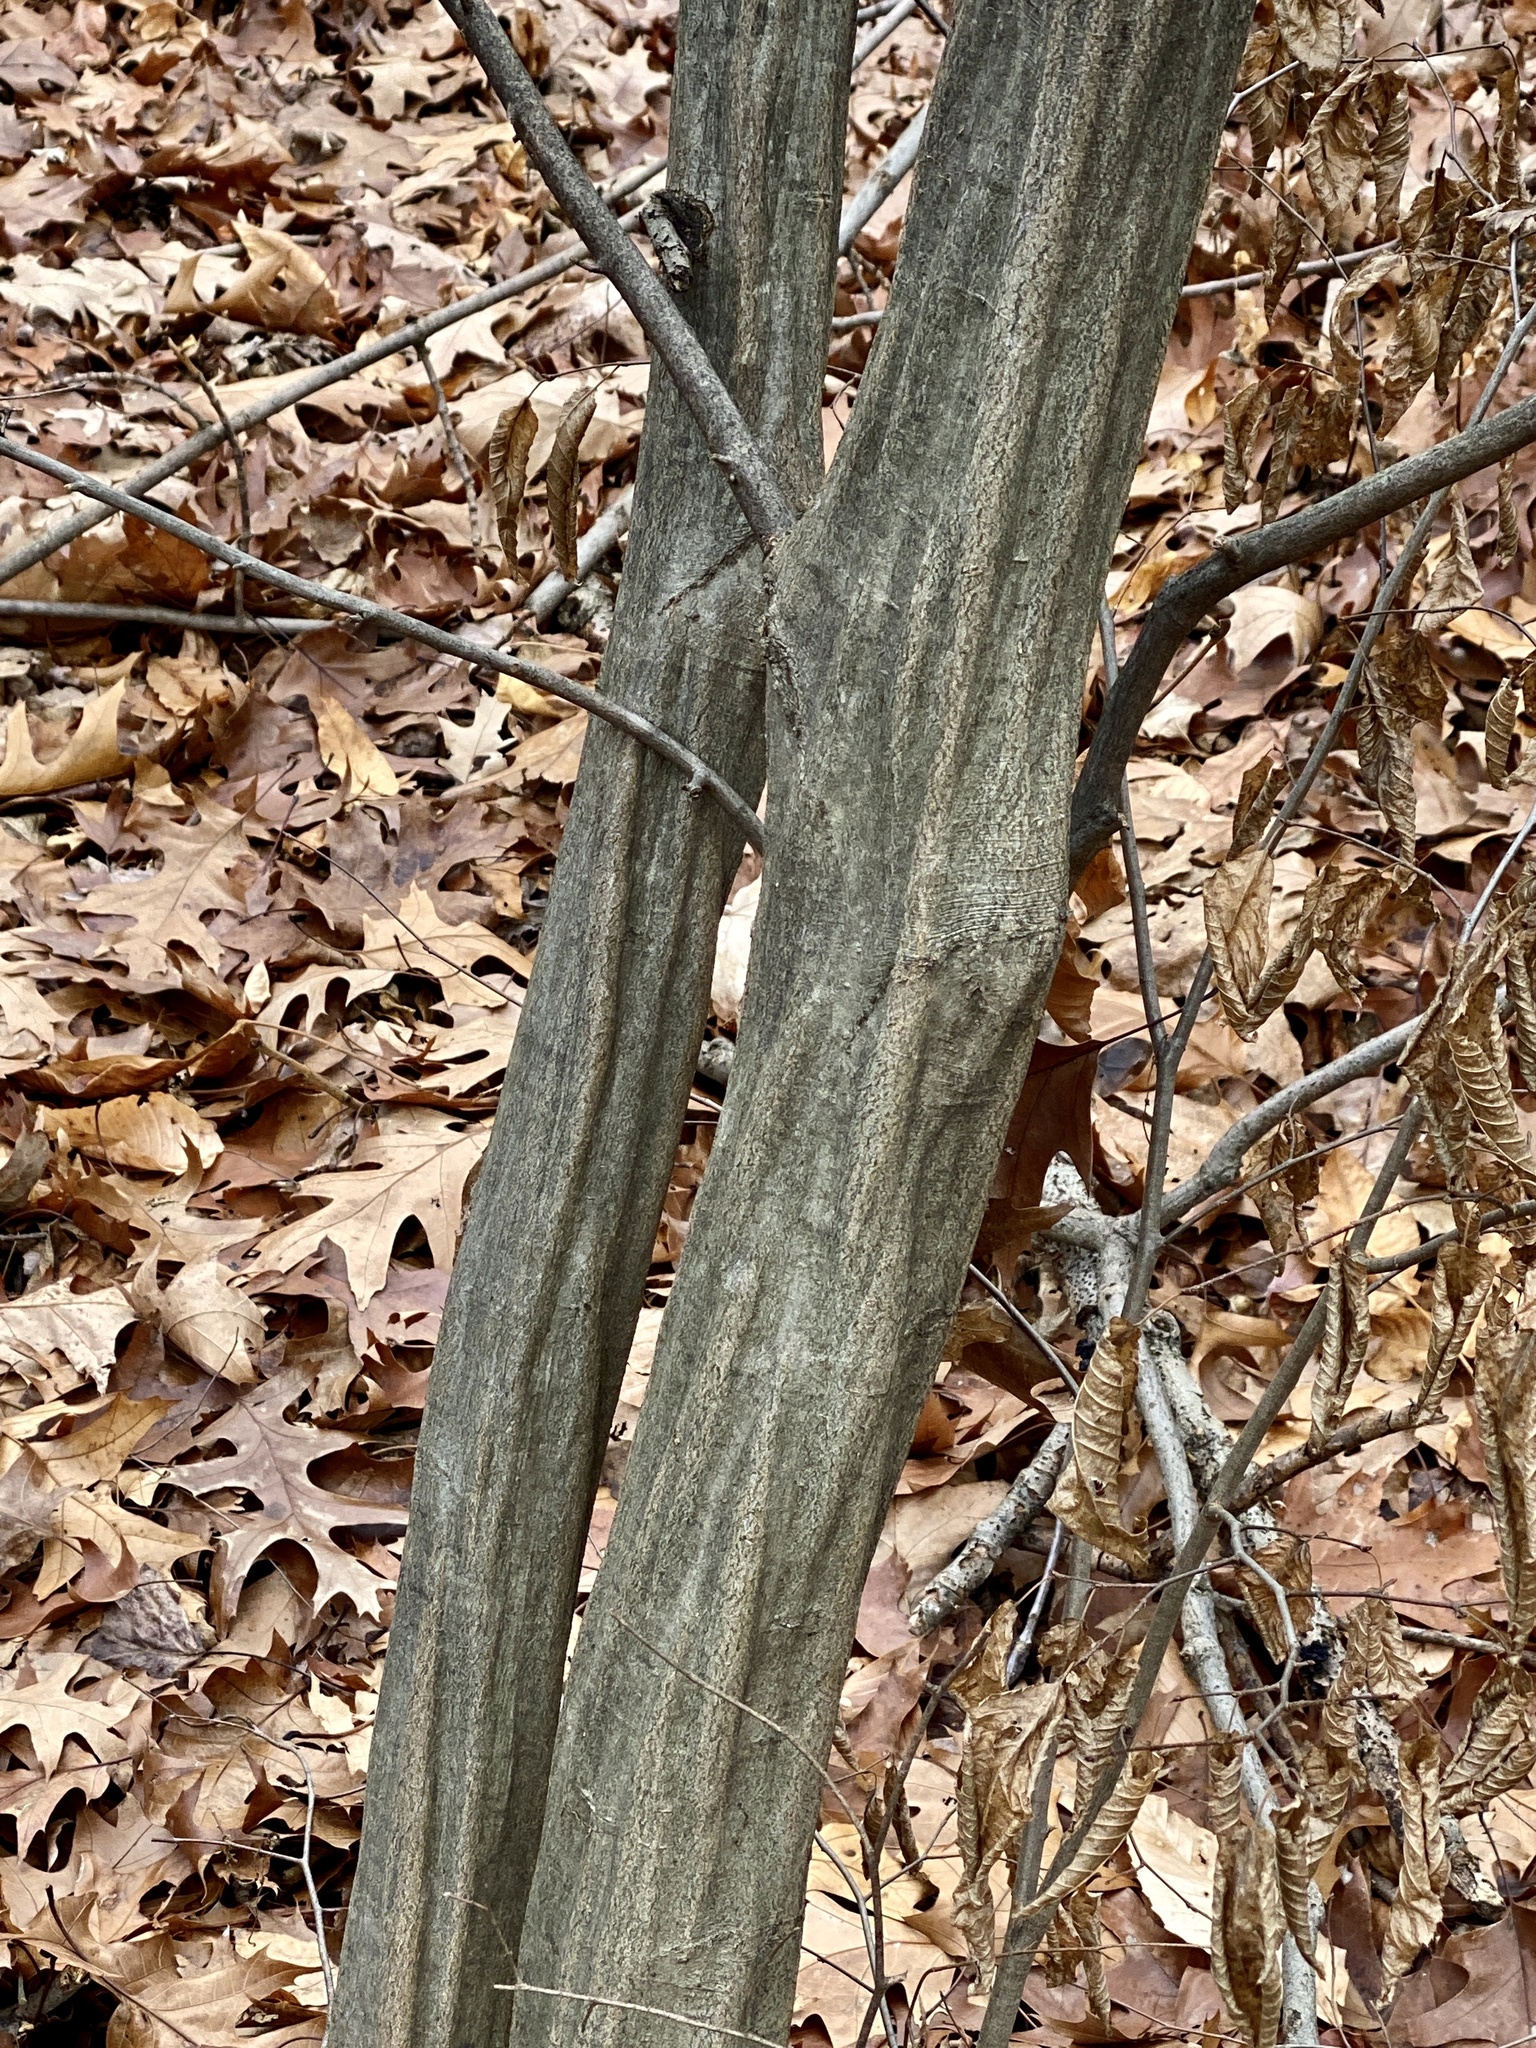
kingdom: Plantae
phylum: Tracheophyta
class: Magnoliopsida
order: Fagales
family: Betulaceae
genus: Carpinus
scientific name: Carpinus caroliniana
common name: American hornbeam
